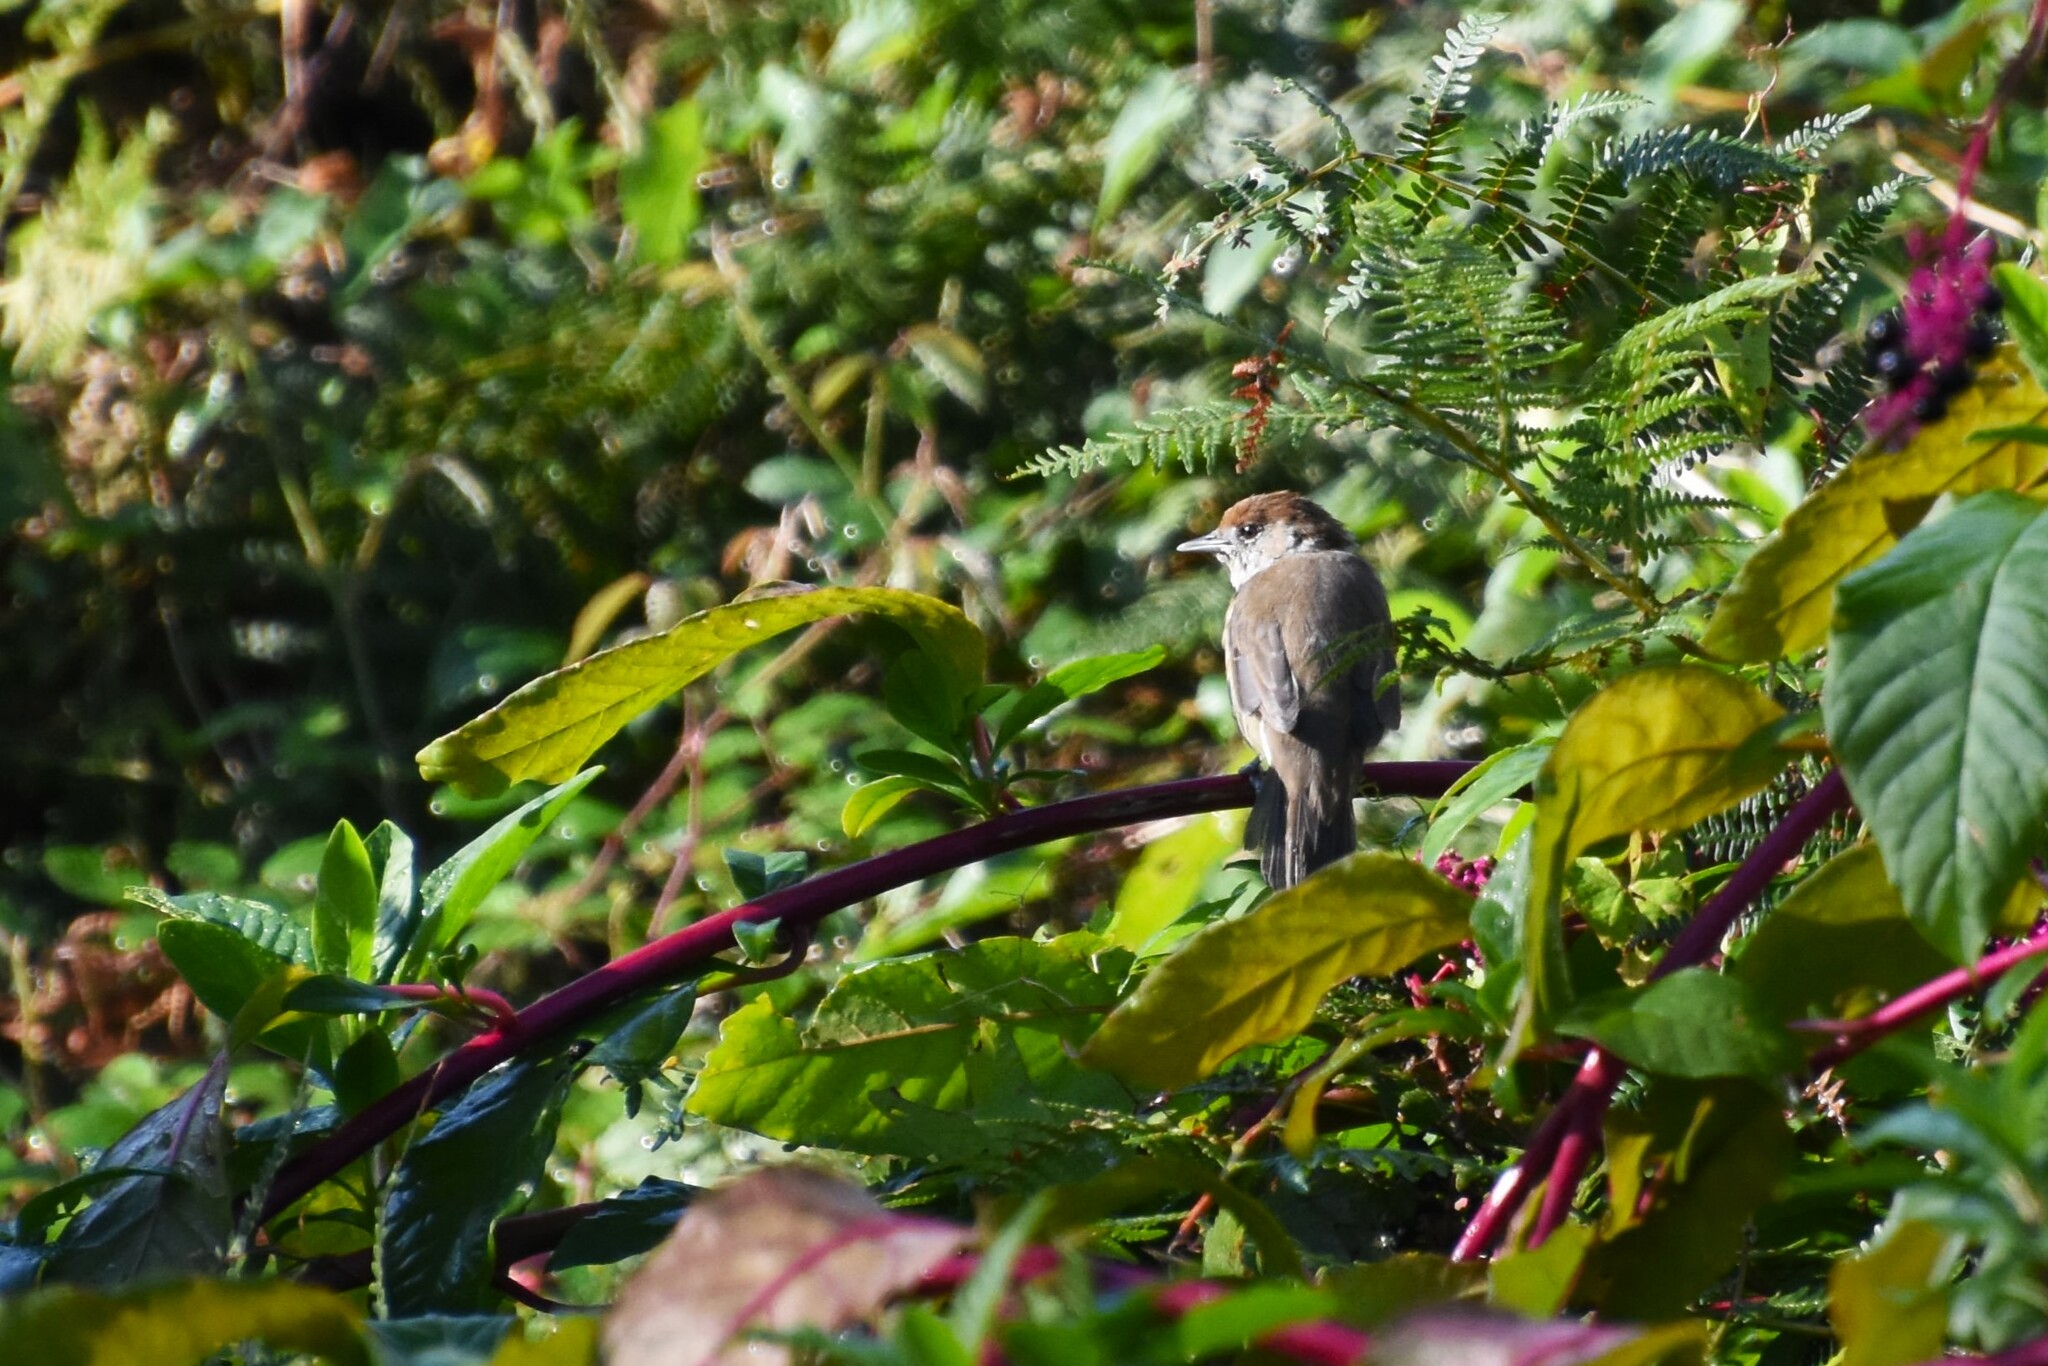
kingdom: Animalia
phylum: Chordata
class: Aves
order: Passeriformes
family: Sylviidae
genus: Sylvia
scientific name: Sylvia atricapilla
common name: Eurasian blackcap
